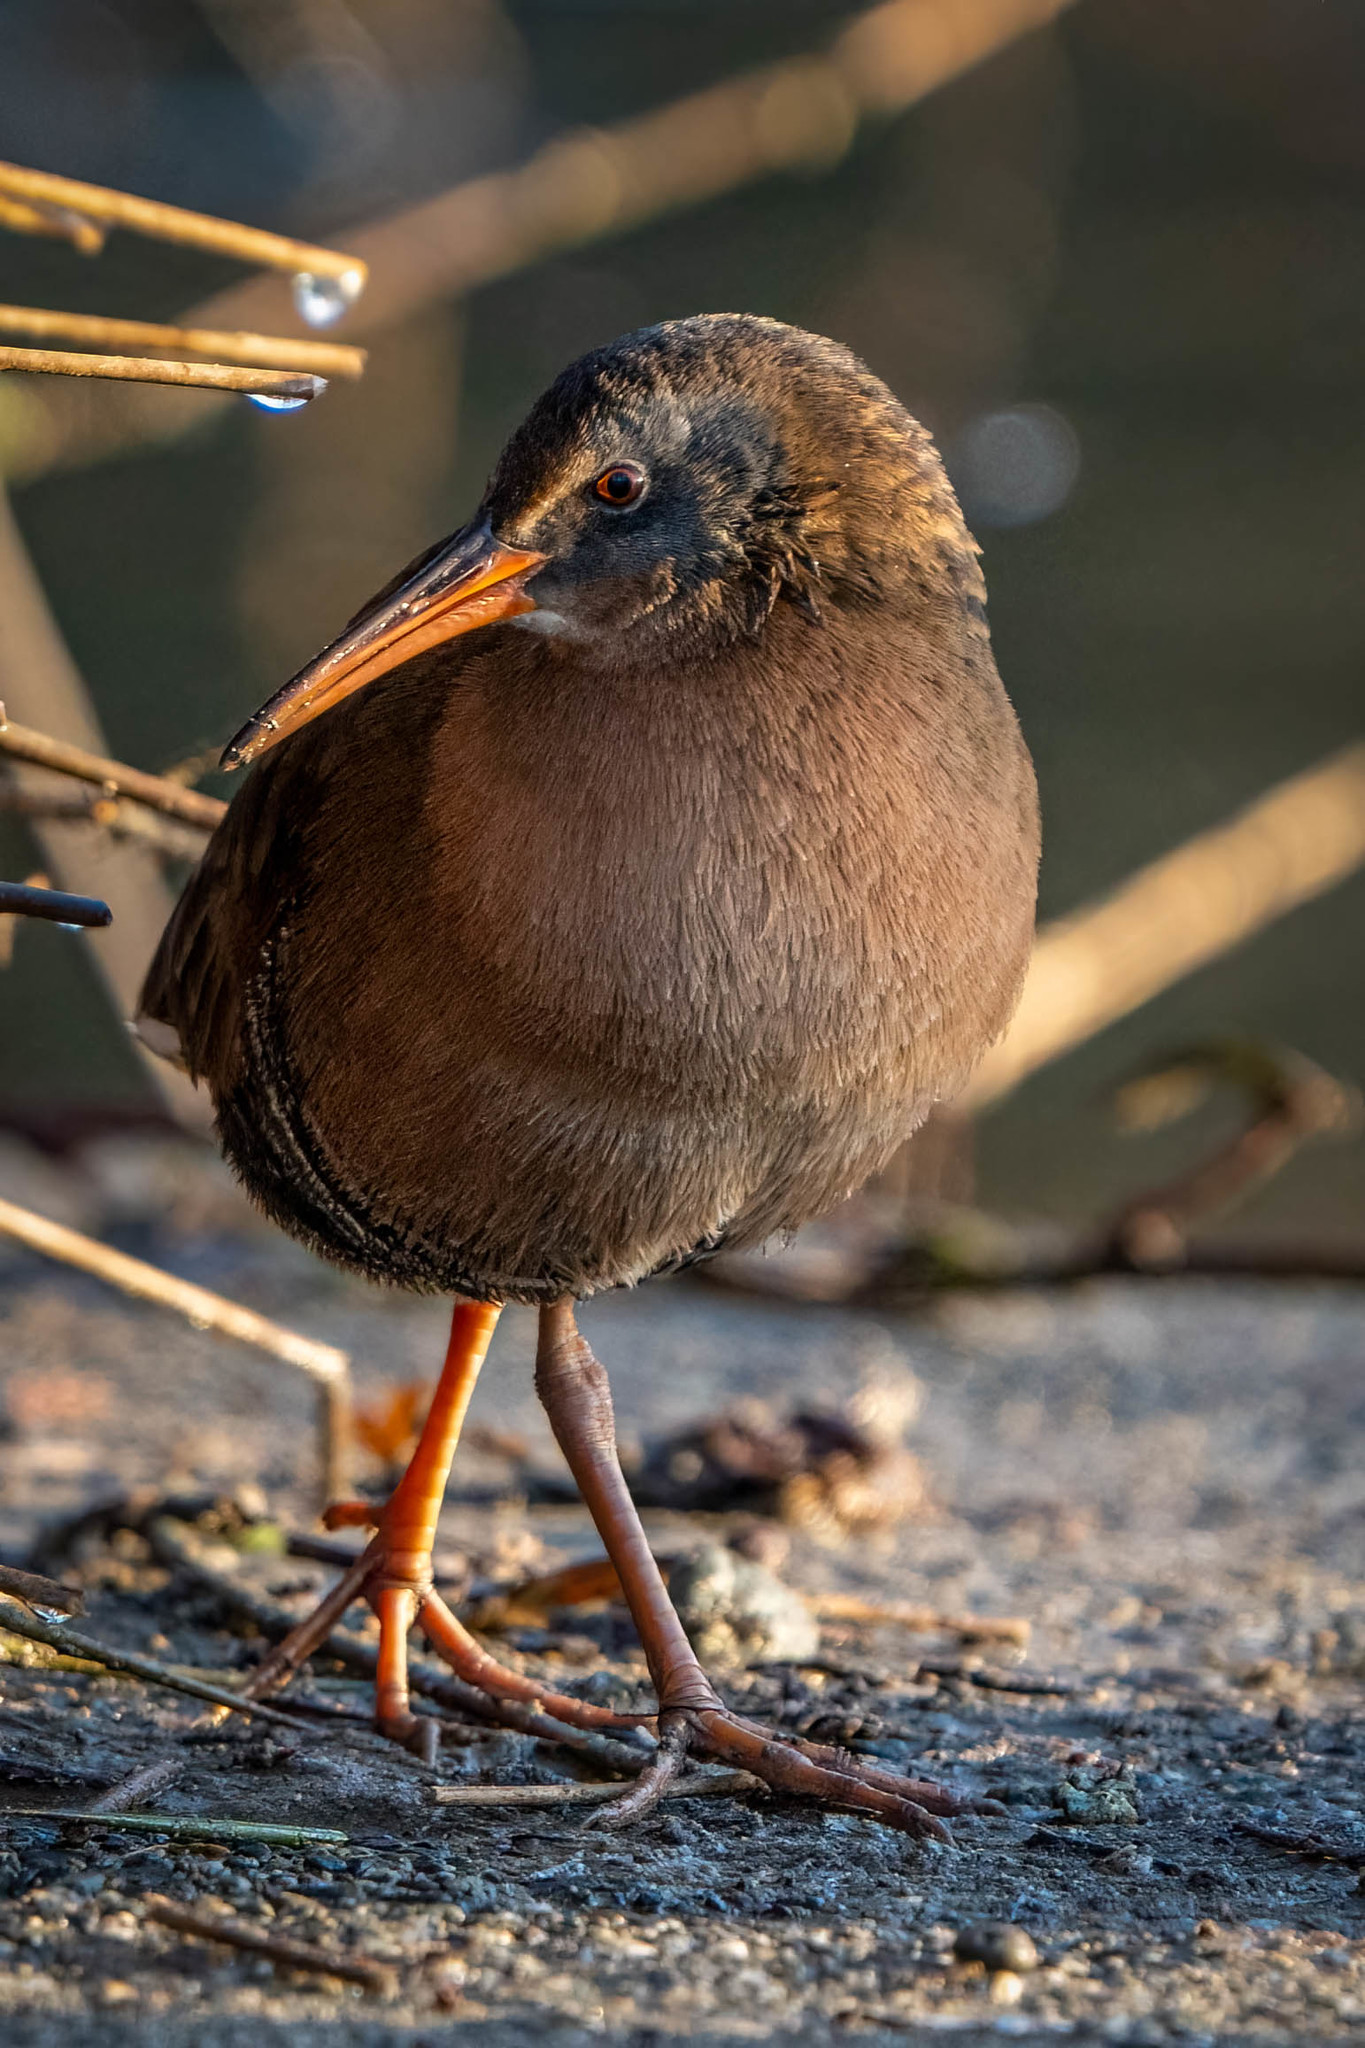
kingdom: Animalia
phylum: Chordata
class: Aves
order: Gruiformes
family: Rallidae
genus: Rallus
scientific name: Rallus limicola
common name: Virginia rail
